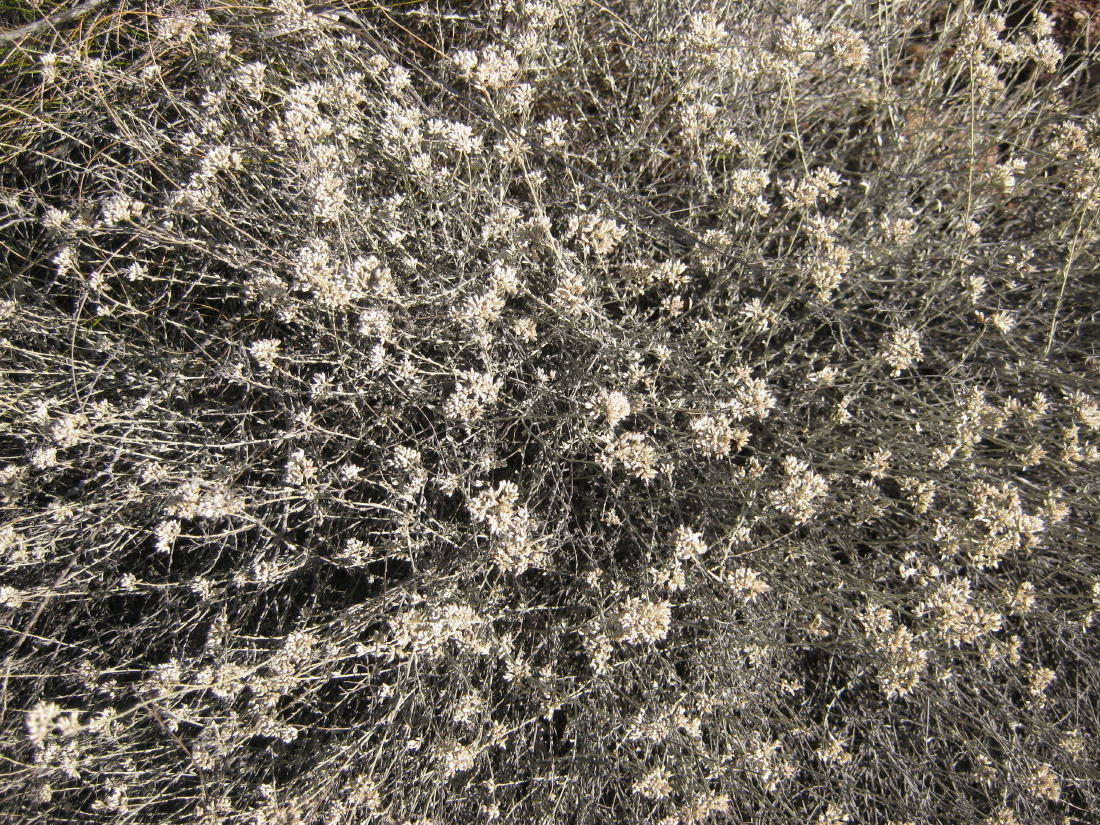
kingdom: Plantae
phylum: Tracheophyta
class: Magnoliopsida
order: Asterales
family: Asteraceae
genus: Helichrysum
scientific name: Helichrysum zeyheri
